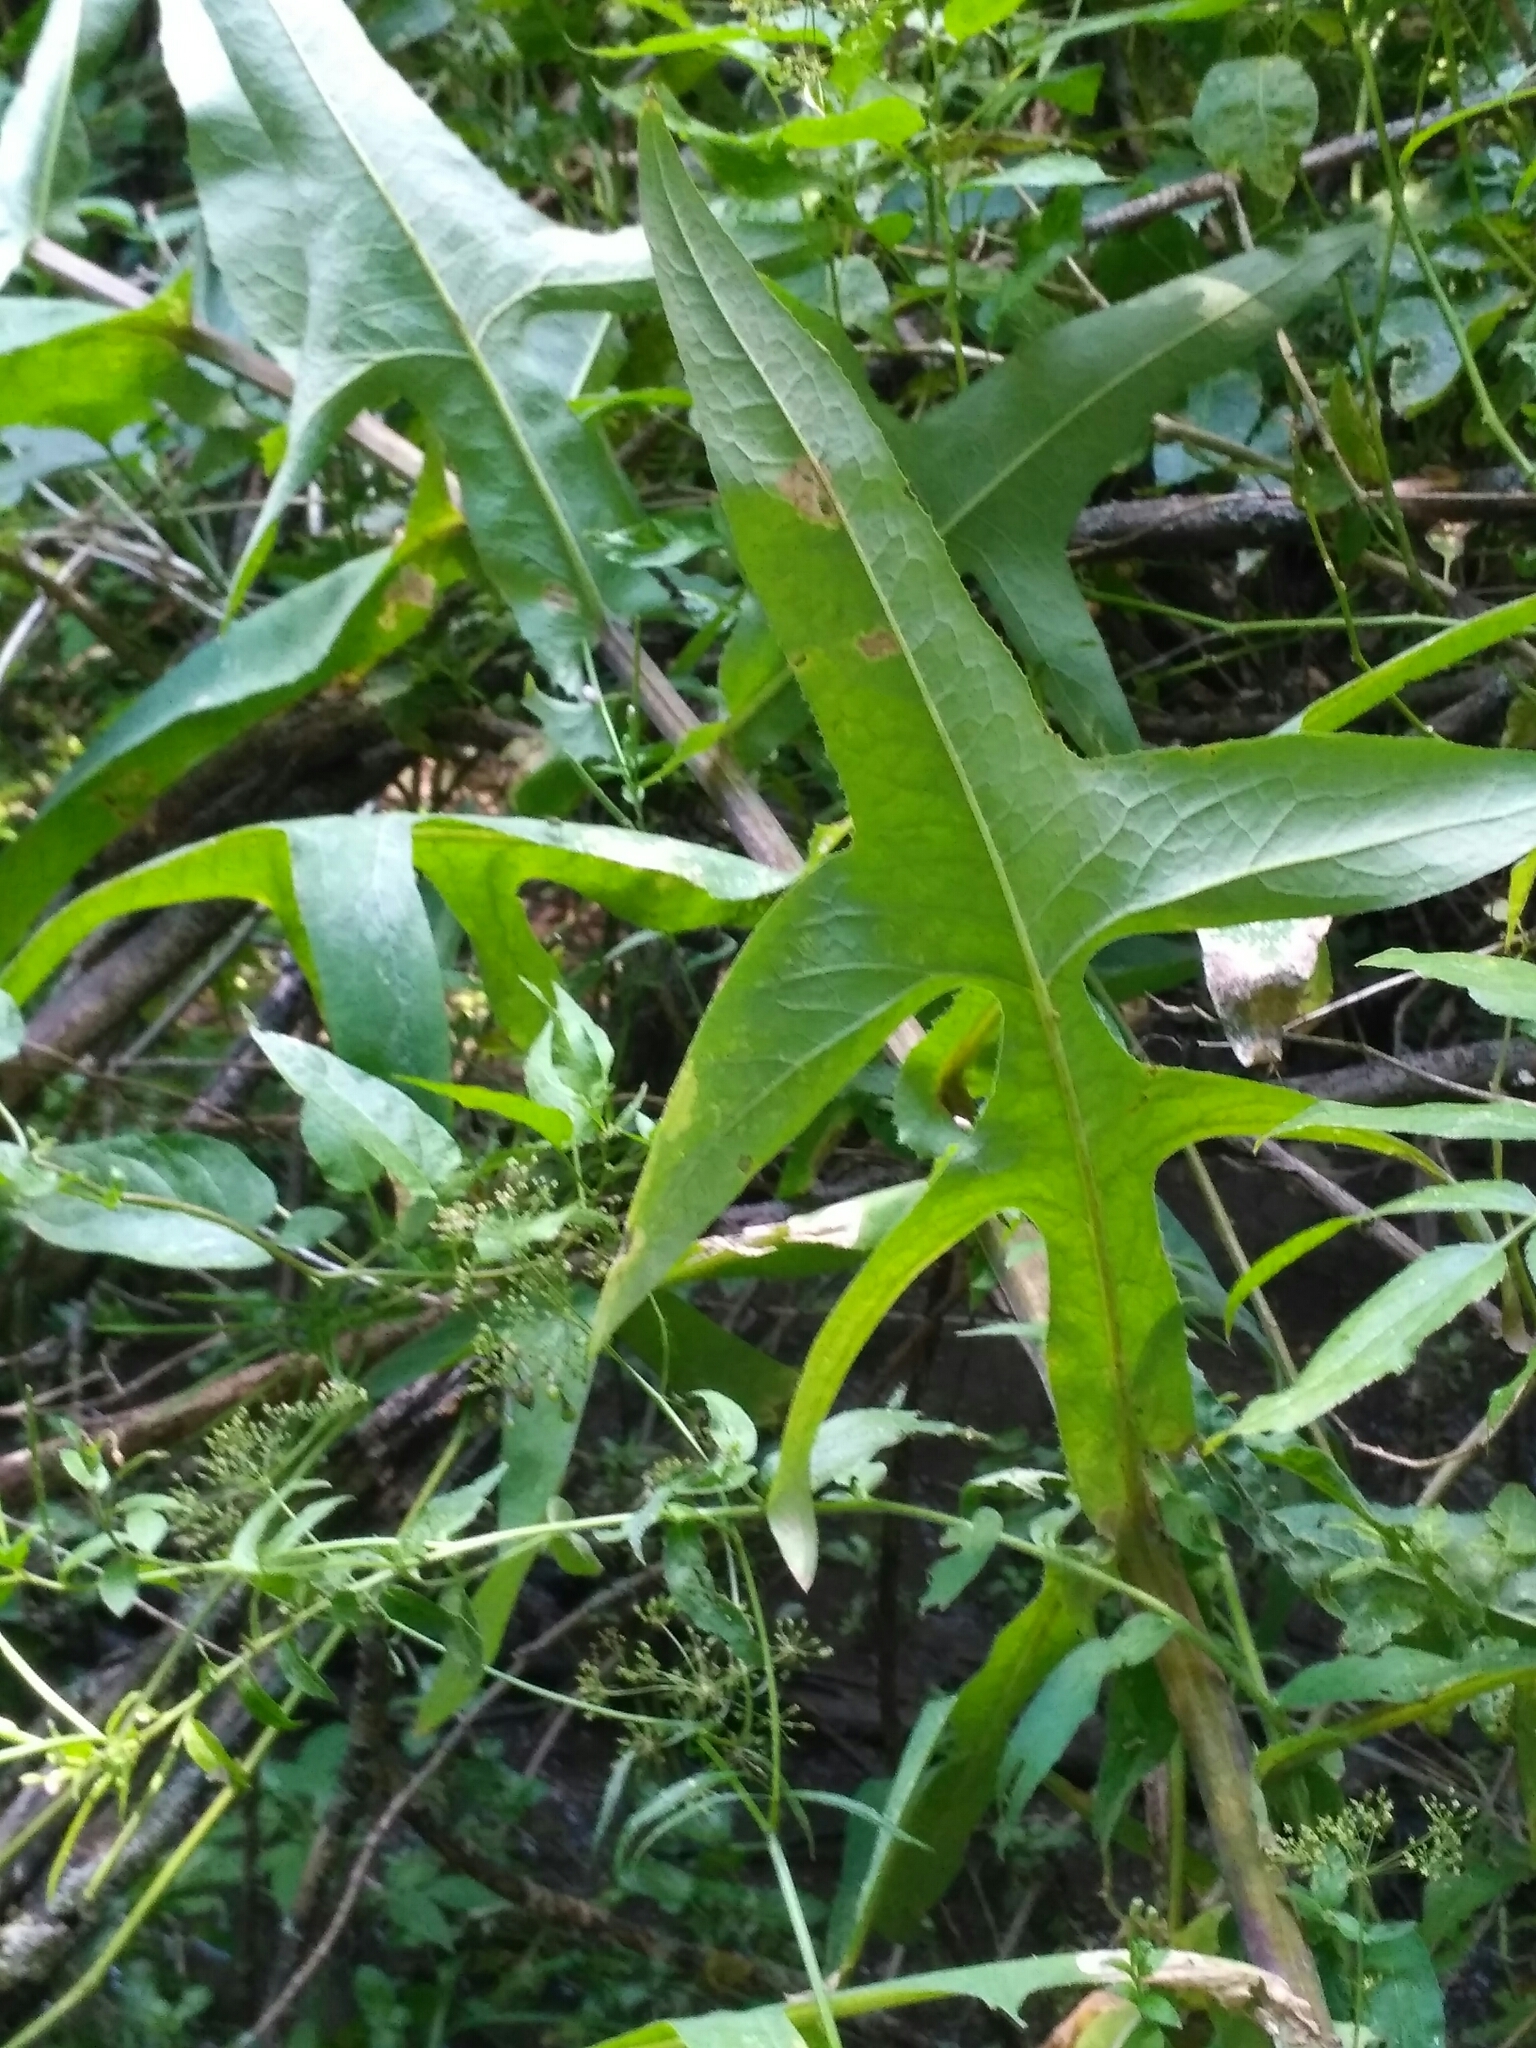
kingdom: Plantae
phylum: Tracheophyta
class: Magnoliopsida
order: Asterales
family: Asteraceae
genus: Sonchus
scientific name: Sonchus palustris
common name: Marsh sow-thistle
